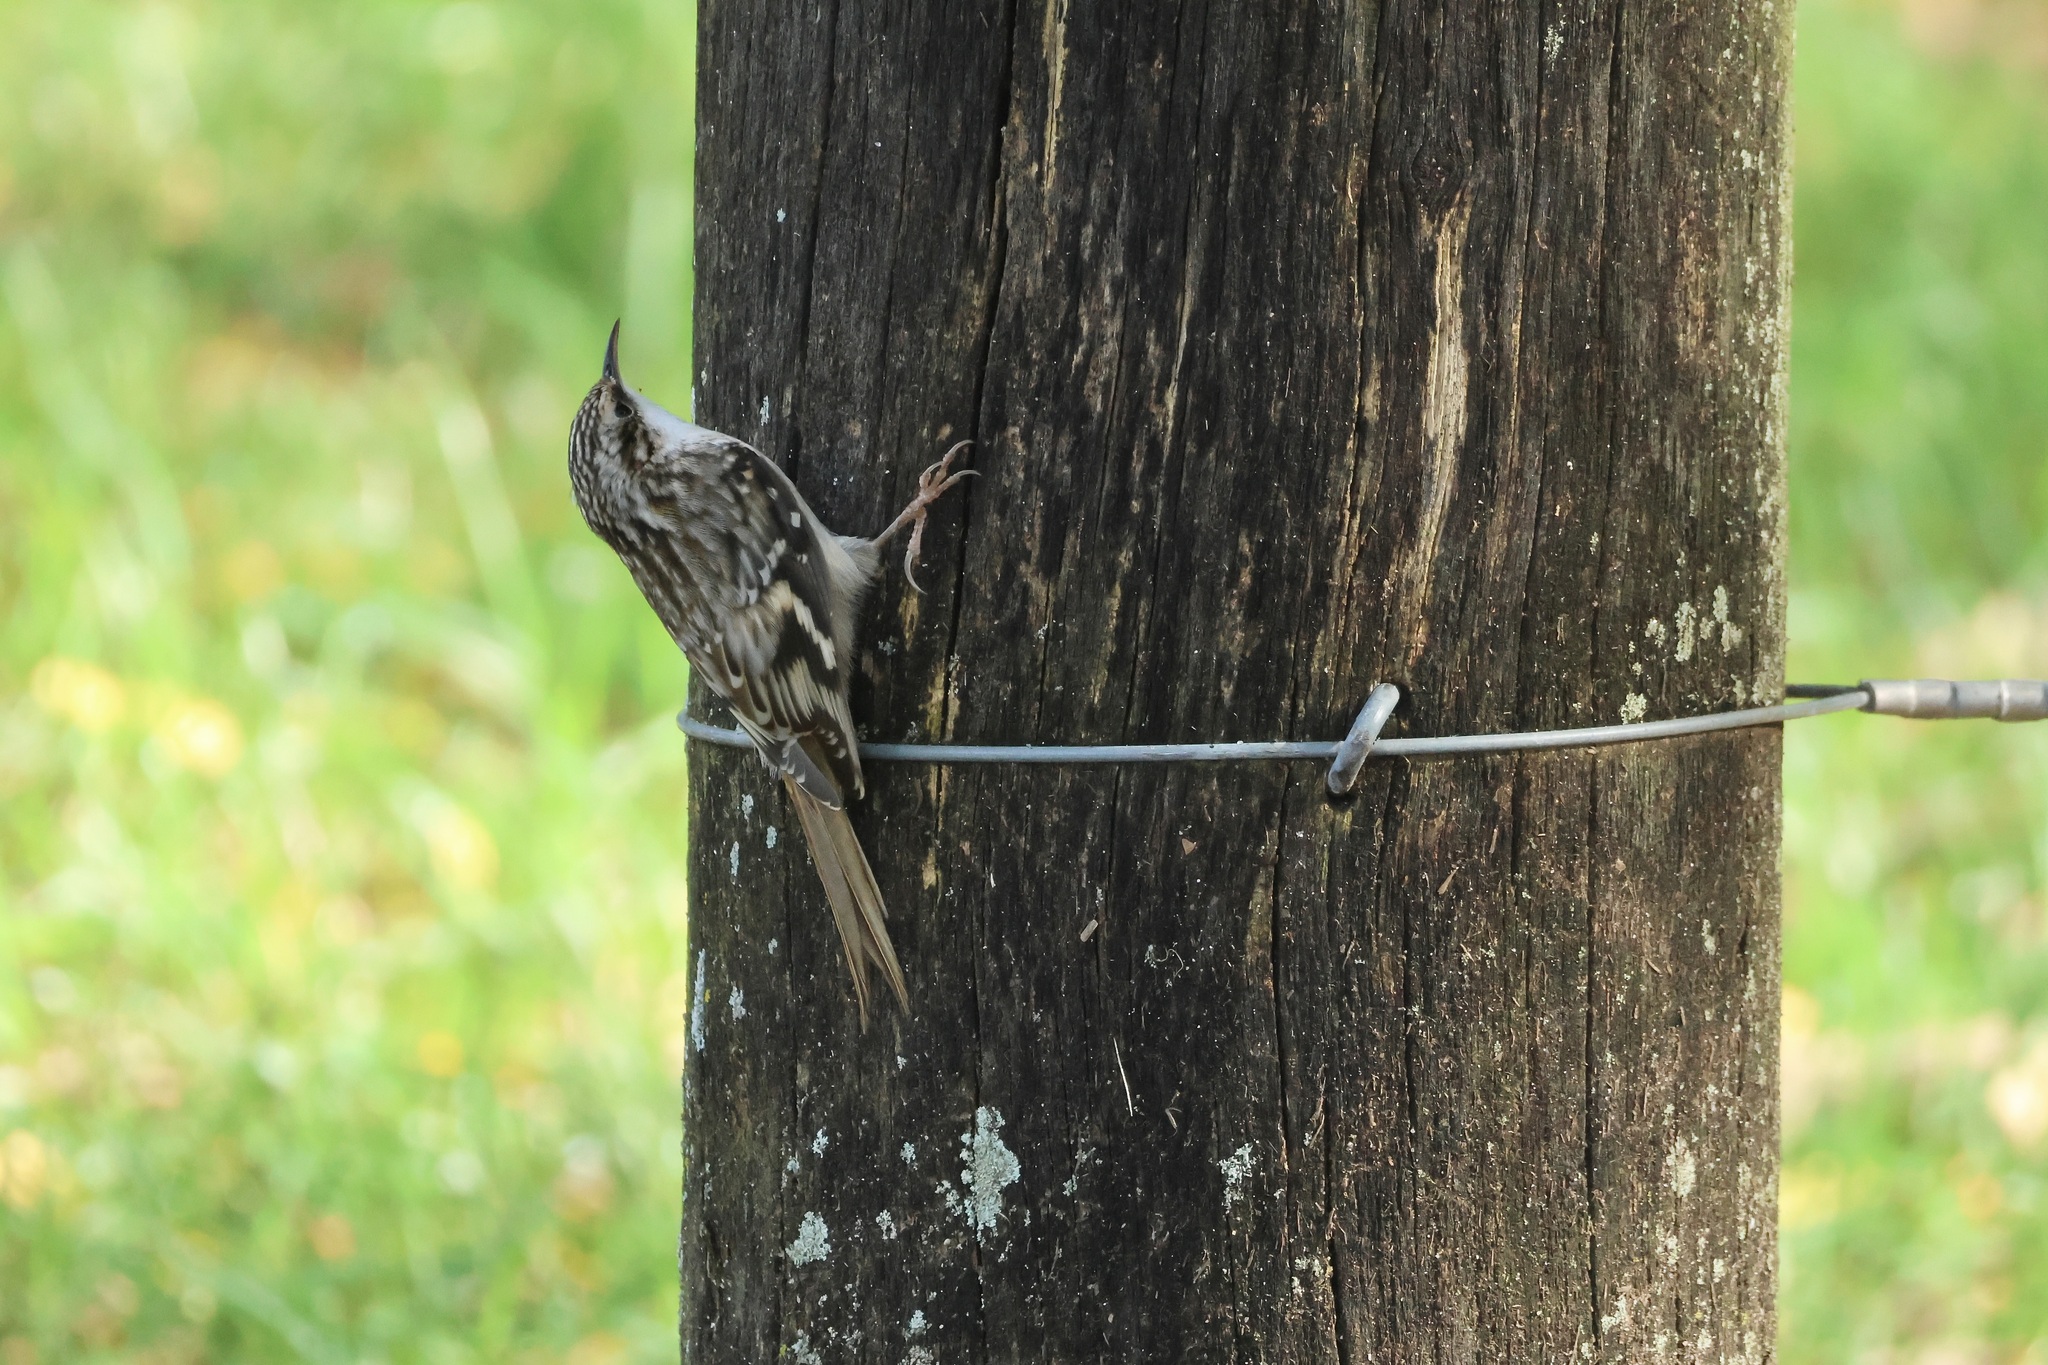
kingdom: Animalia
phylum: Chordata
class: Aves
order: Passeriformes
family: Certhiidae
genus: Certhia
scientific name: Certhia americana
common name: Brown creeper
